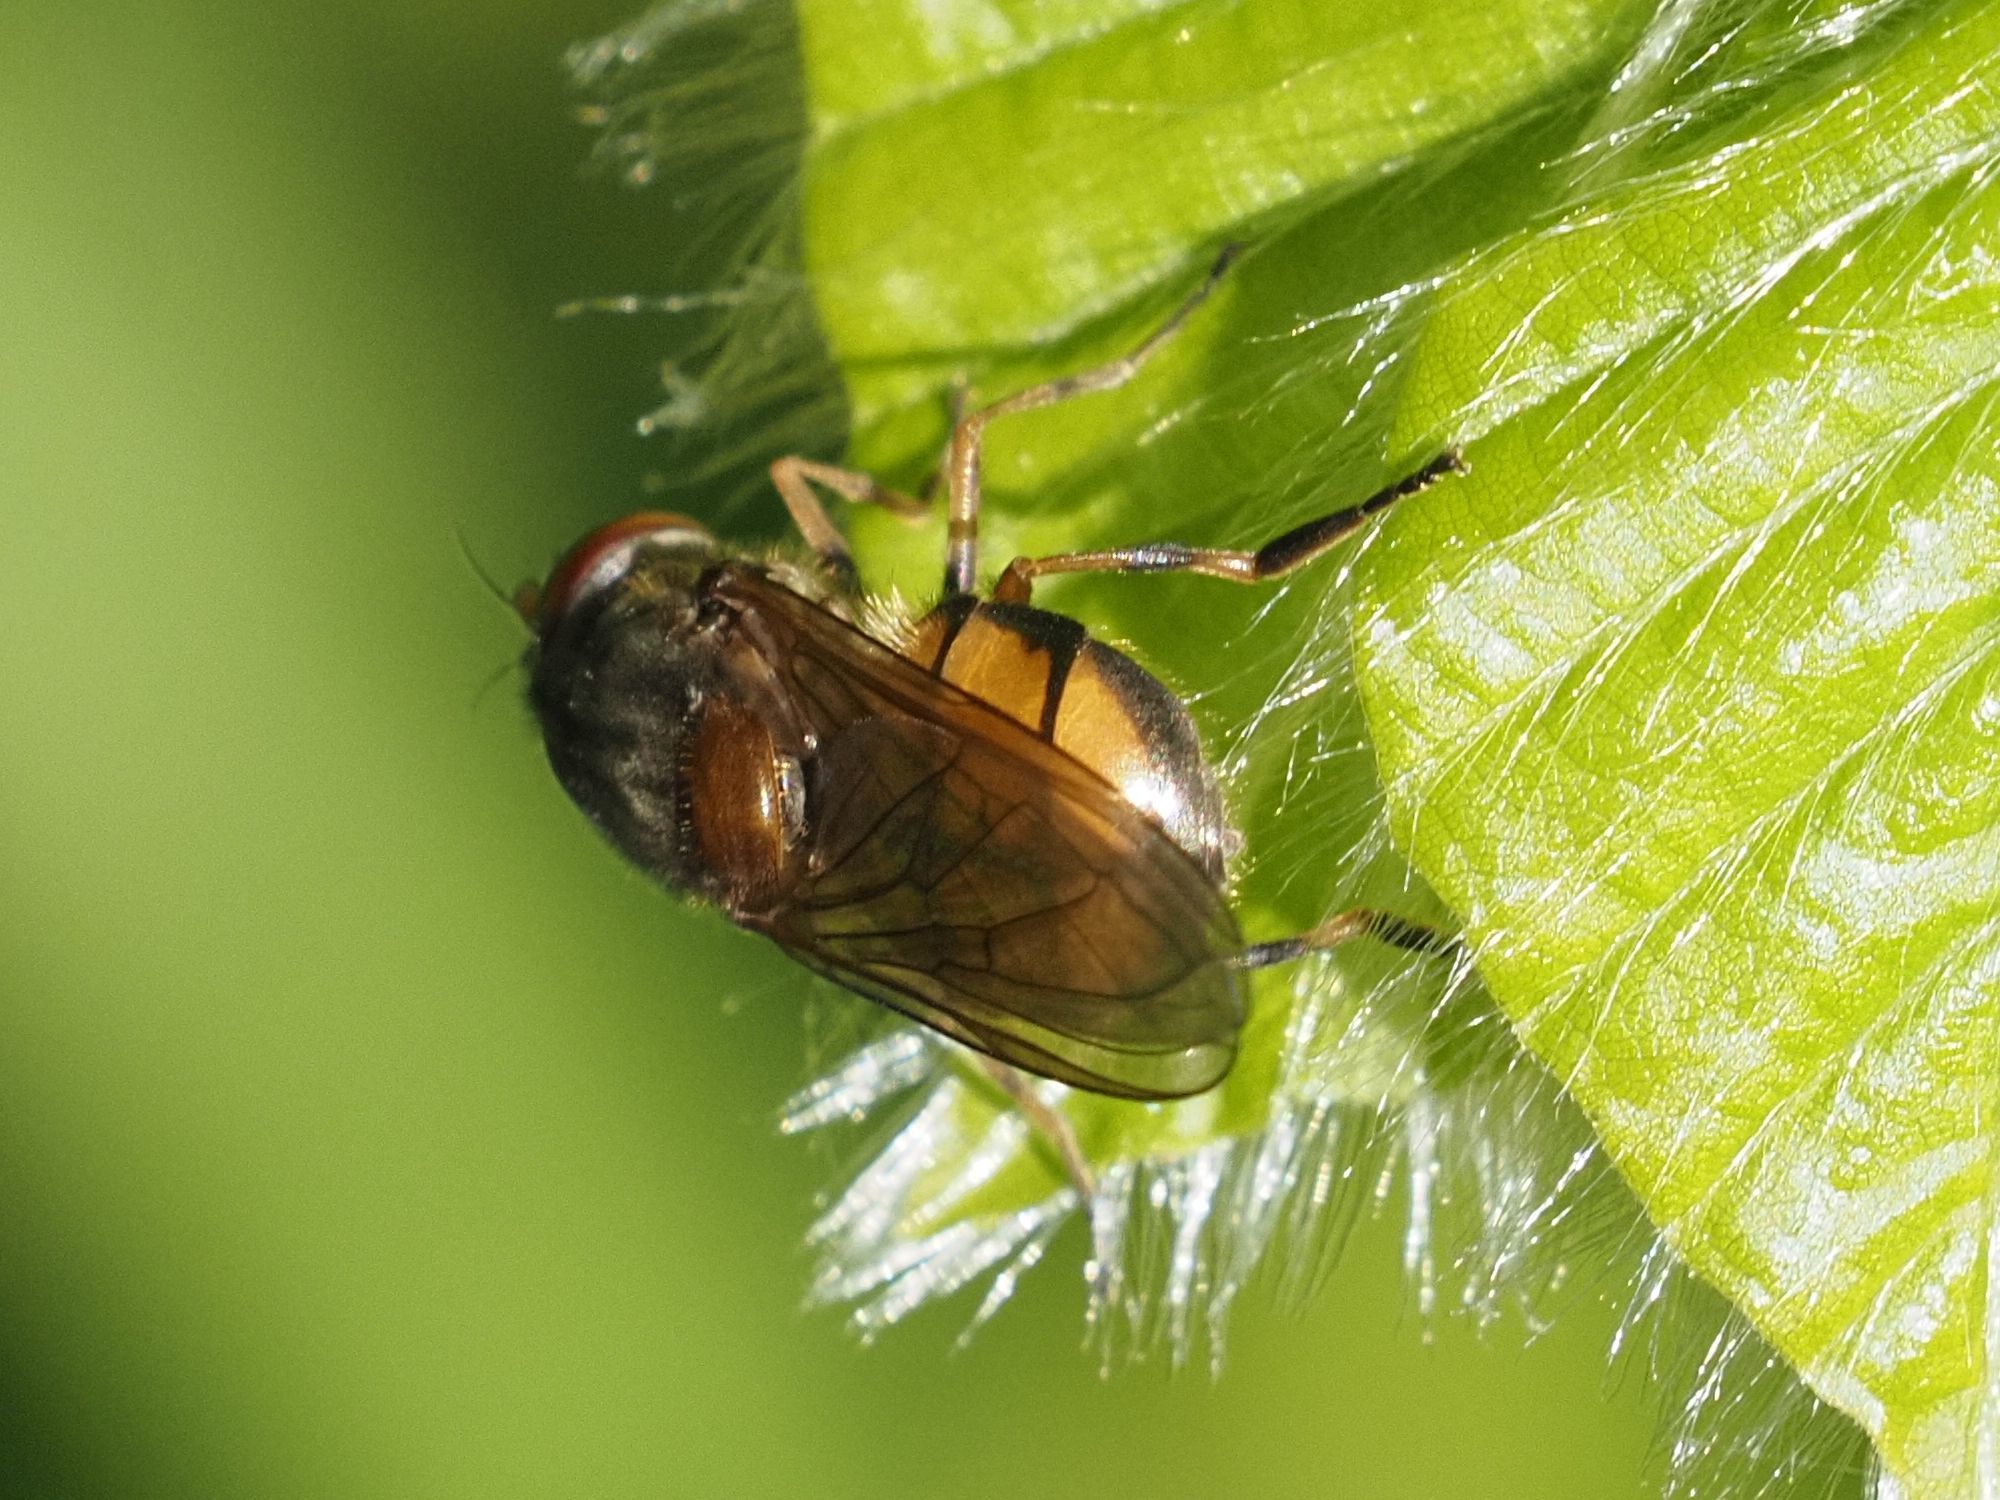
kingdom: Animalia
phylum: Arthropoda
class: Insecta
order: Diptera
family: Syrphidae
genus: Rhingia
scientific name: Rhingia campestris
